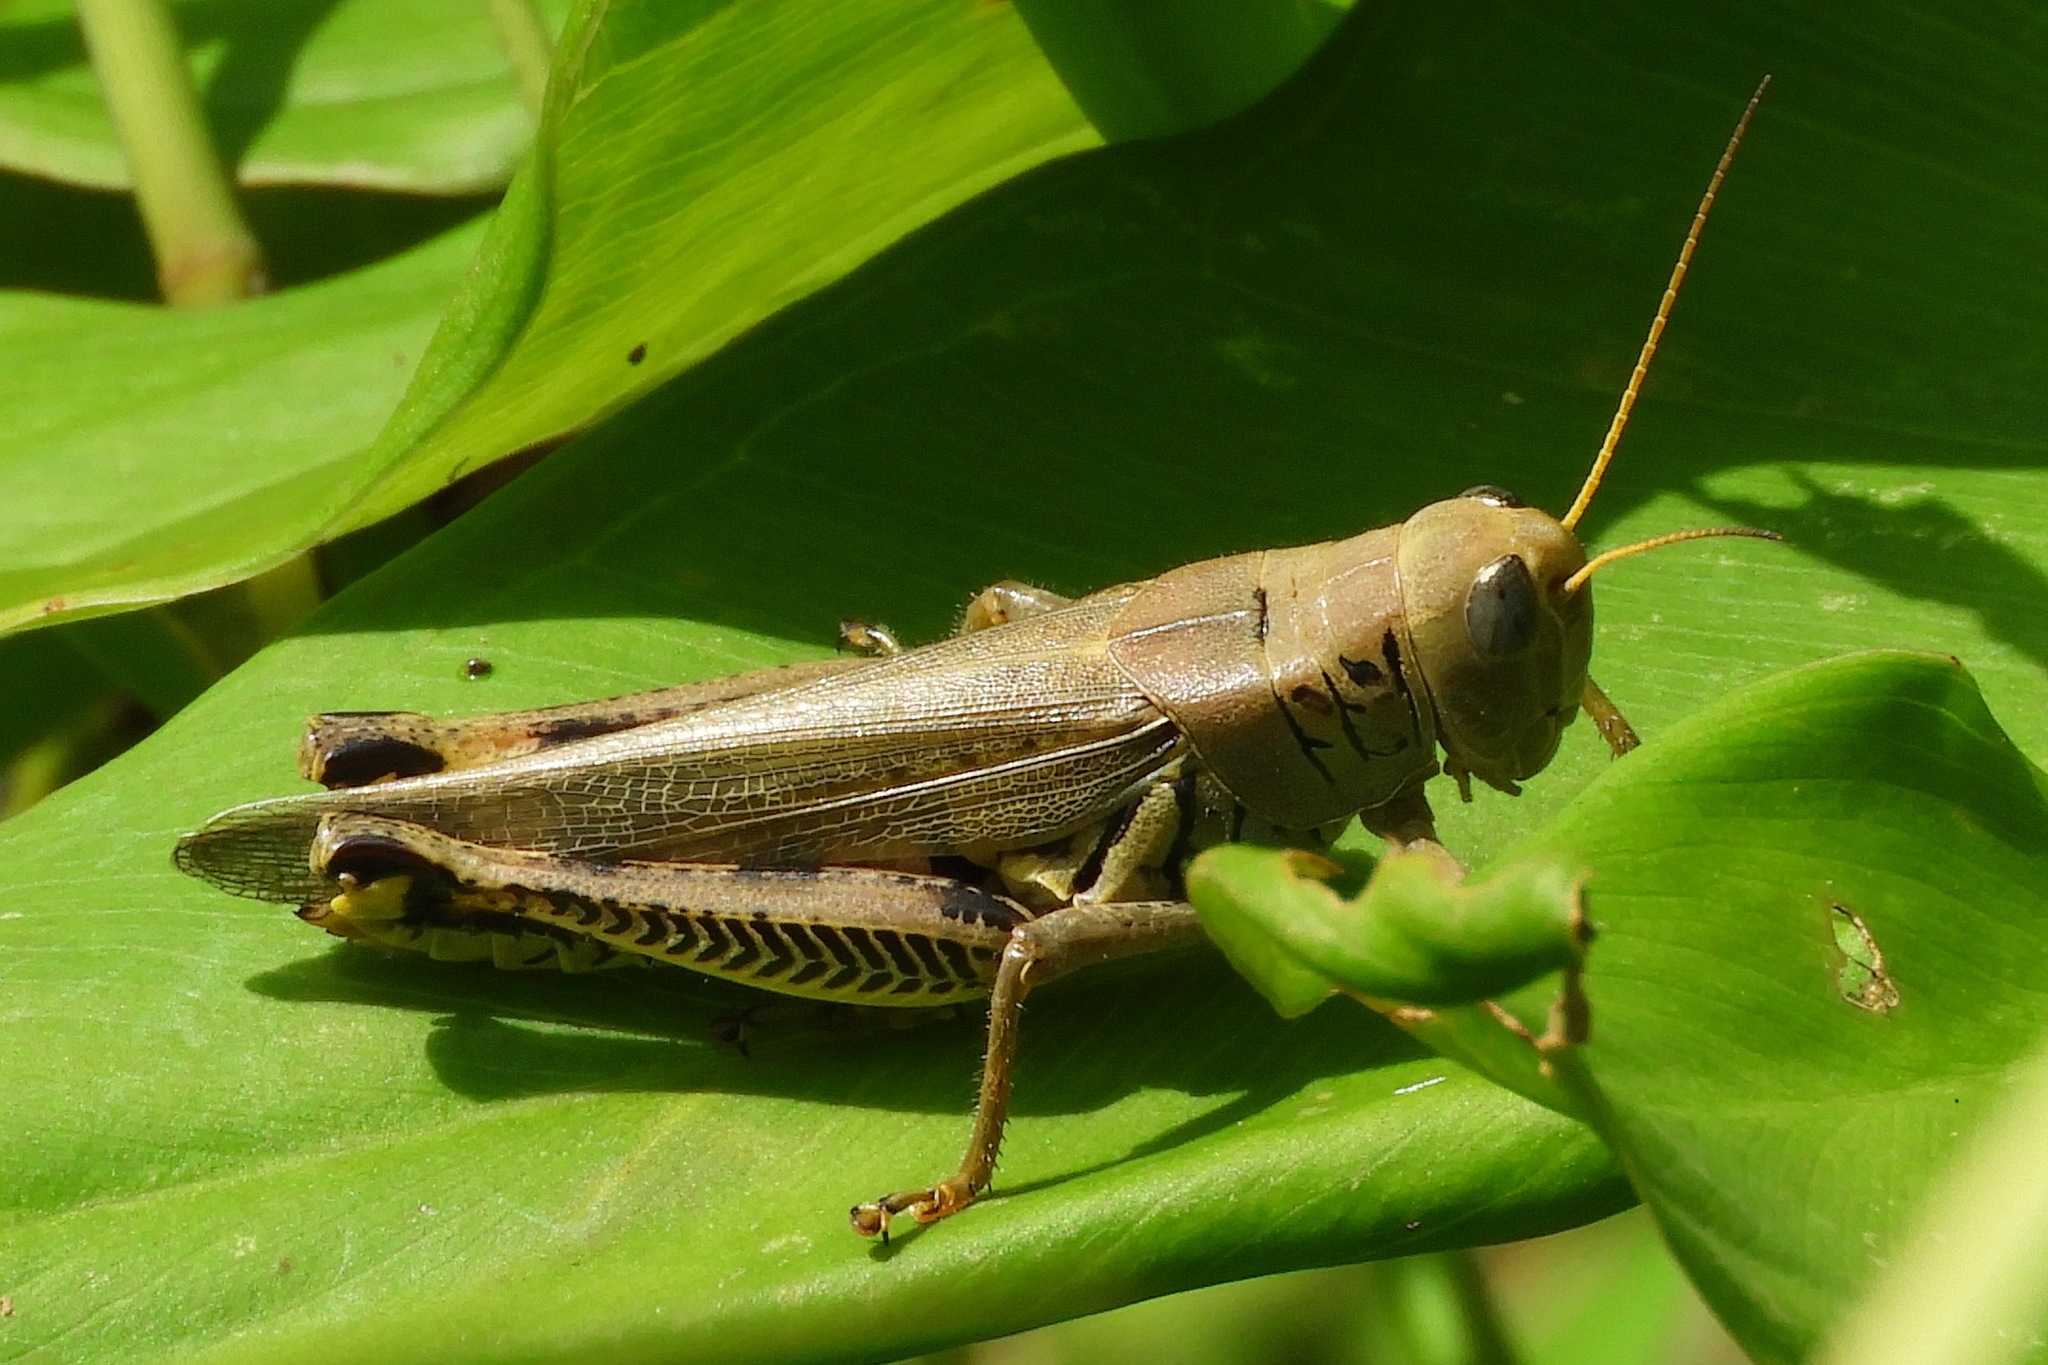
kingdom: Animalia
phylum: Arthropoda
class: Insecta
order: Orthoptera
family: Acrididae
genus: Melanoplus
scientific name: Melanoplus differentialis
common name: Differential grasshopper
